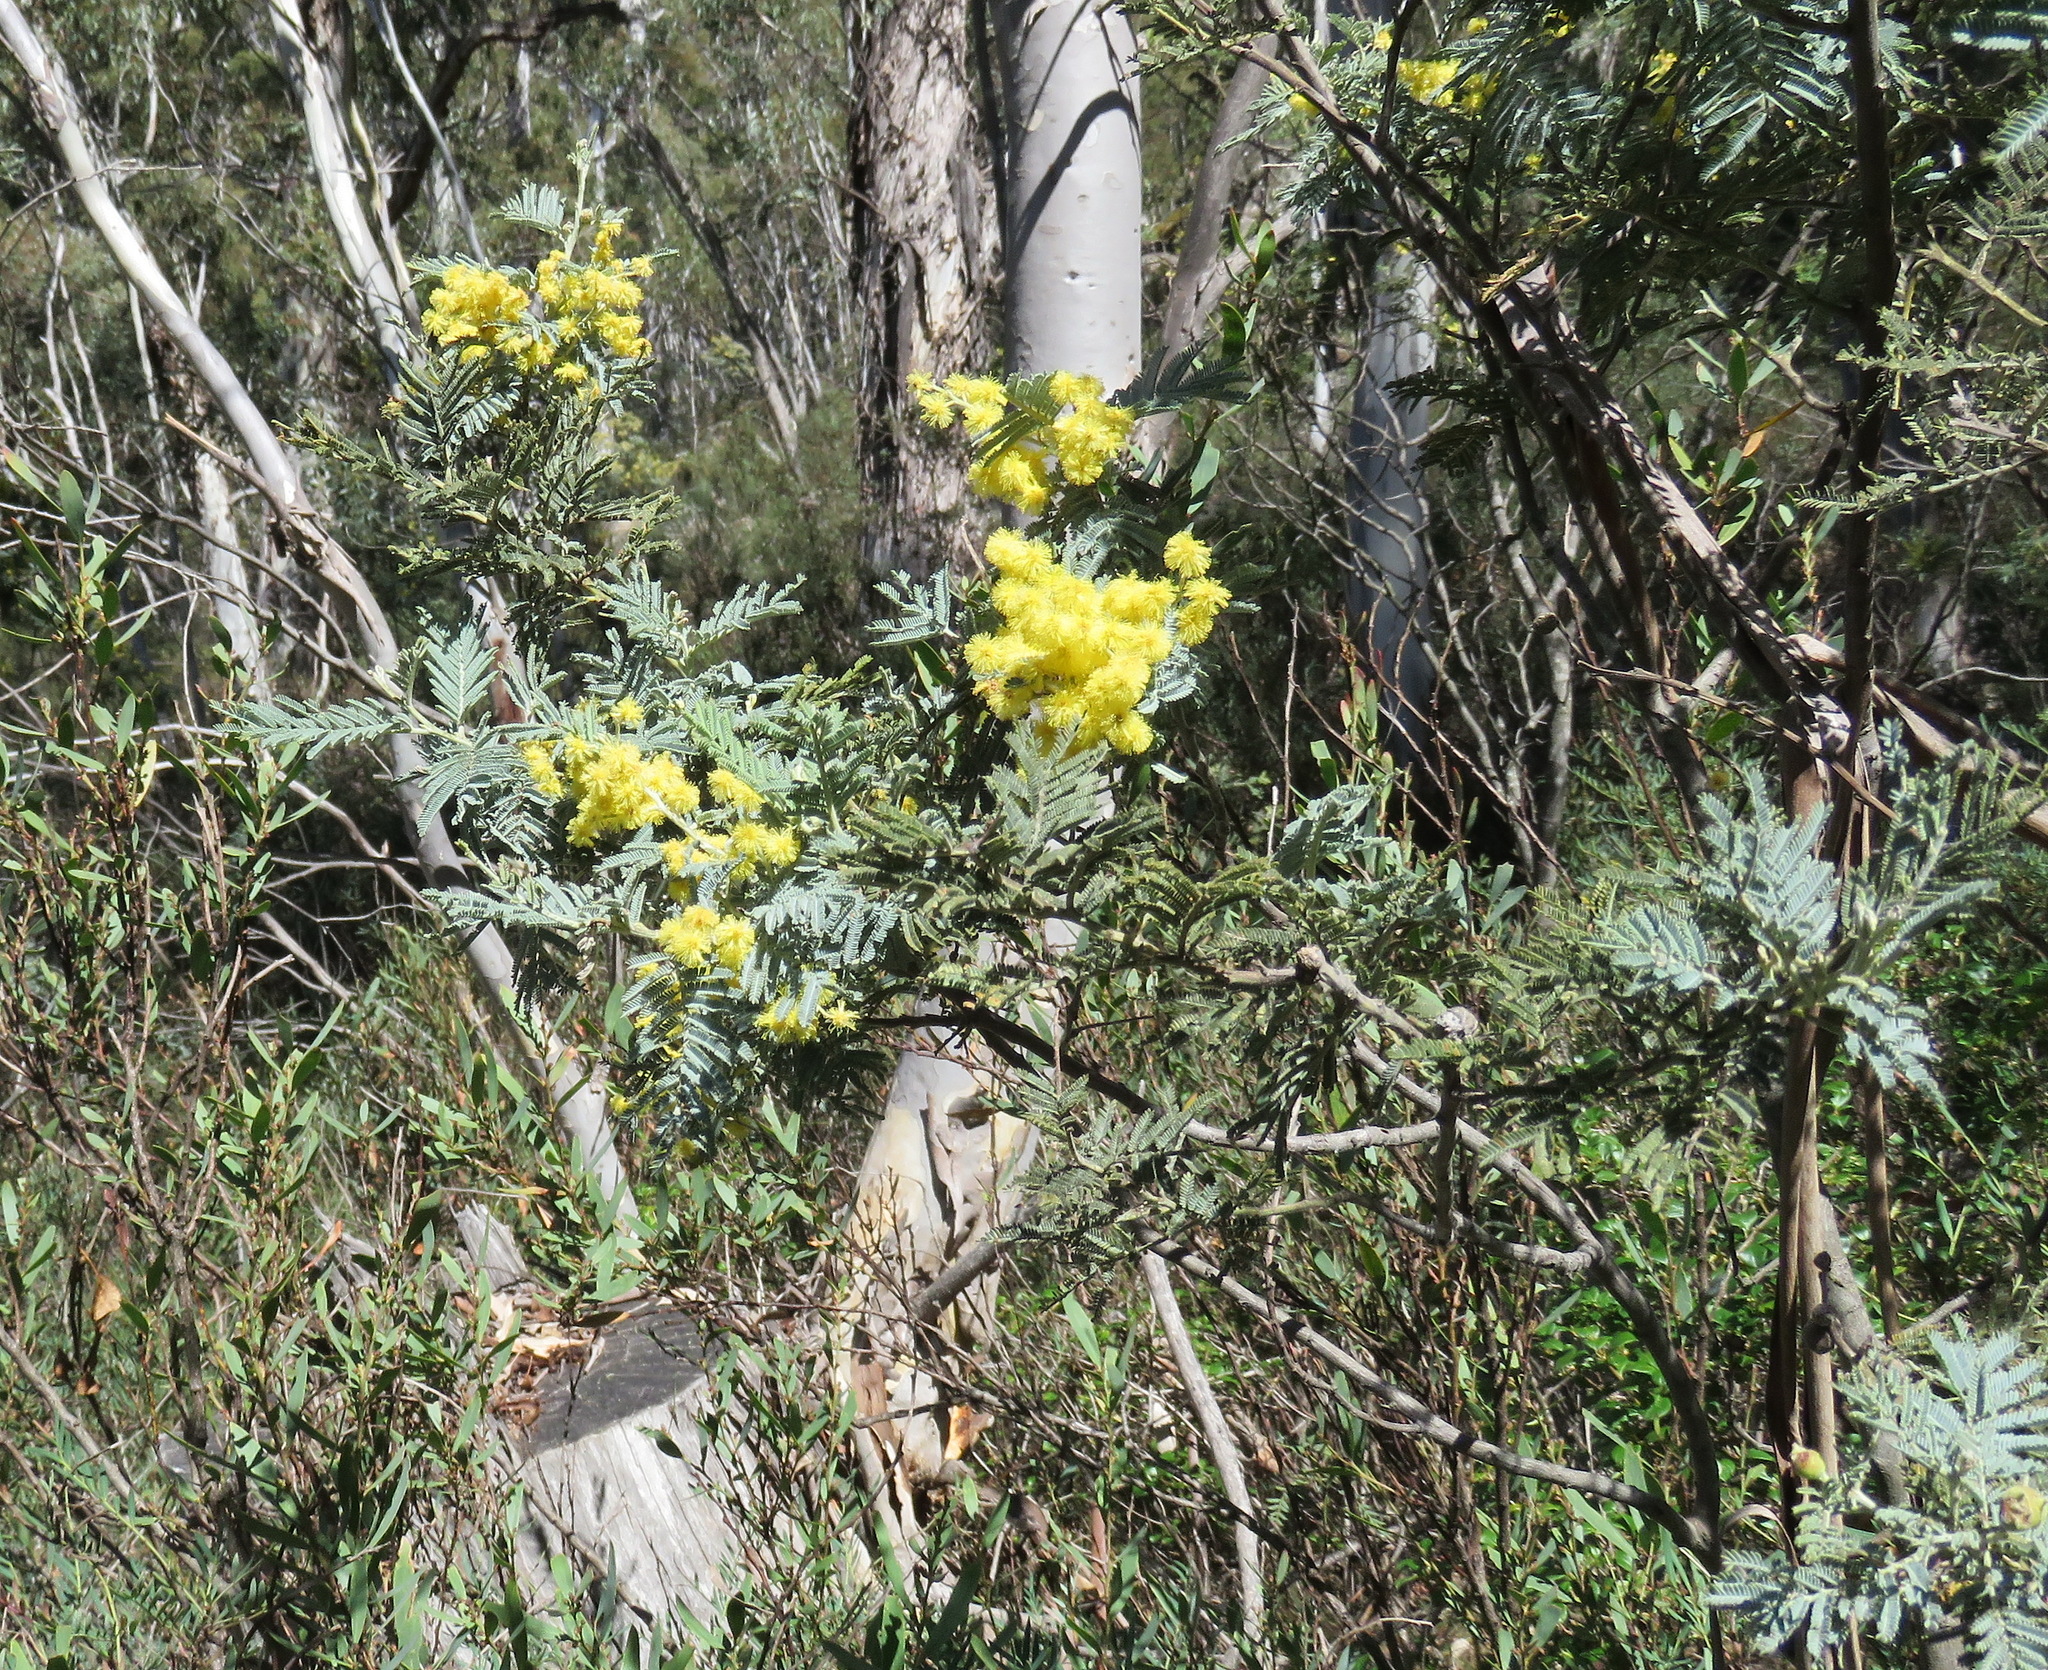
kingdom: Plantae
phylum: Tracheophyta
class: Magnoliopsida
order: Fabales
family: Fabaceae
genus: Acacia
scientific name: Acacia dealbata
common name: Silver wattle
